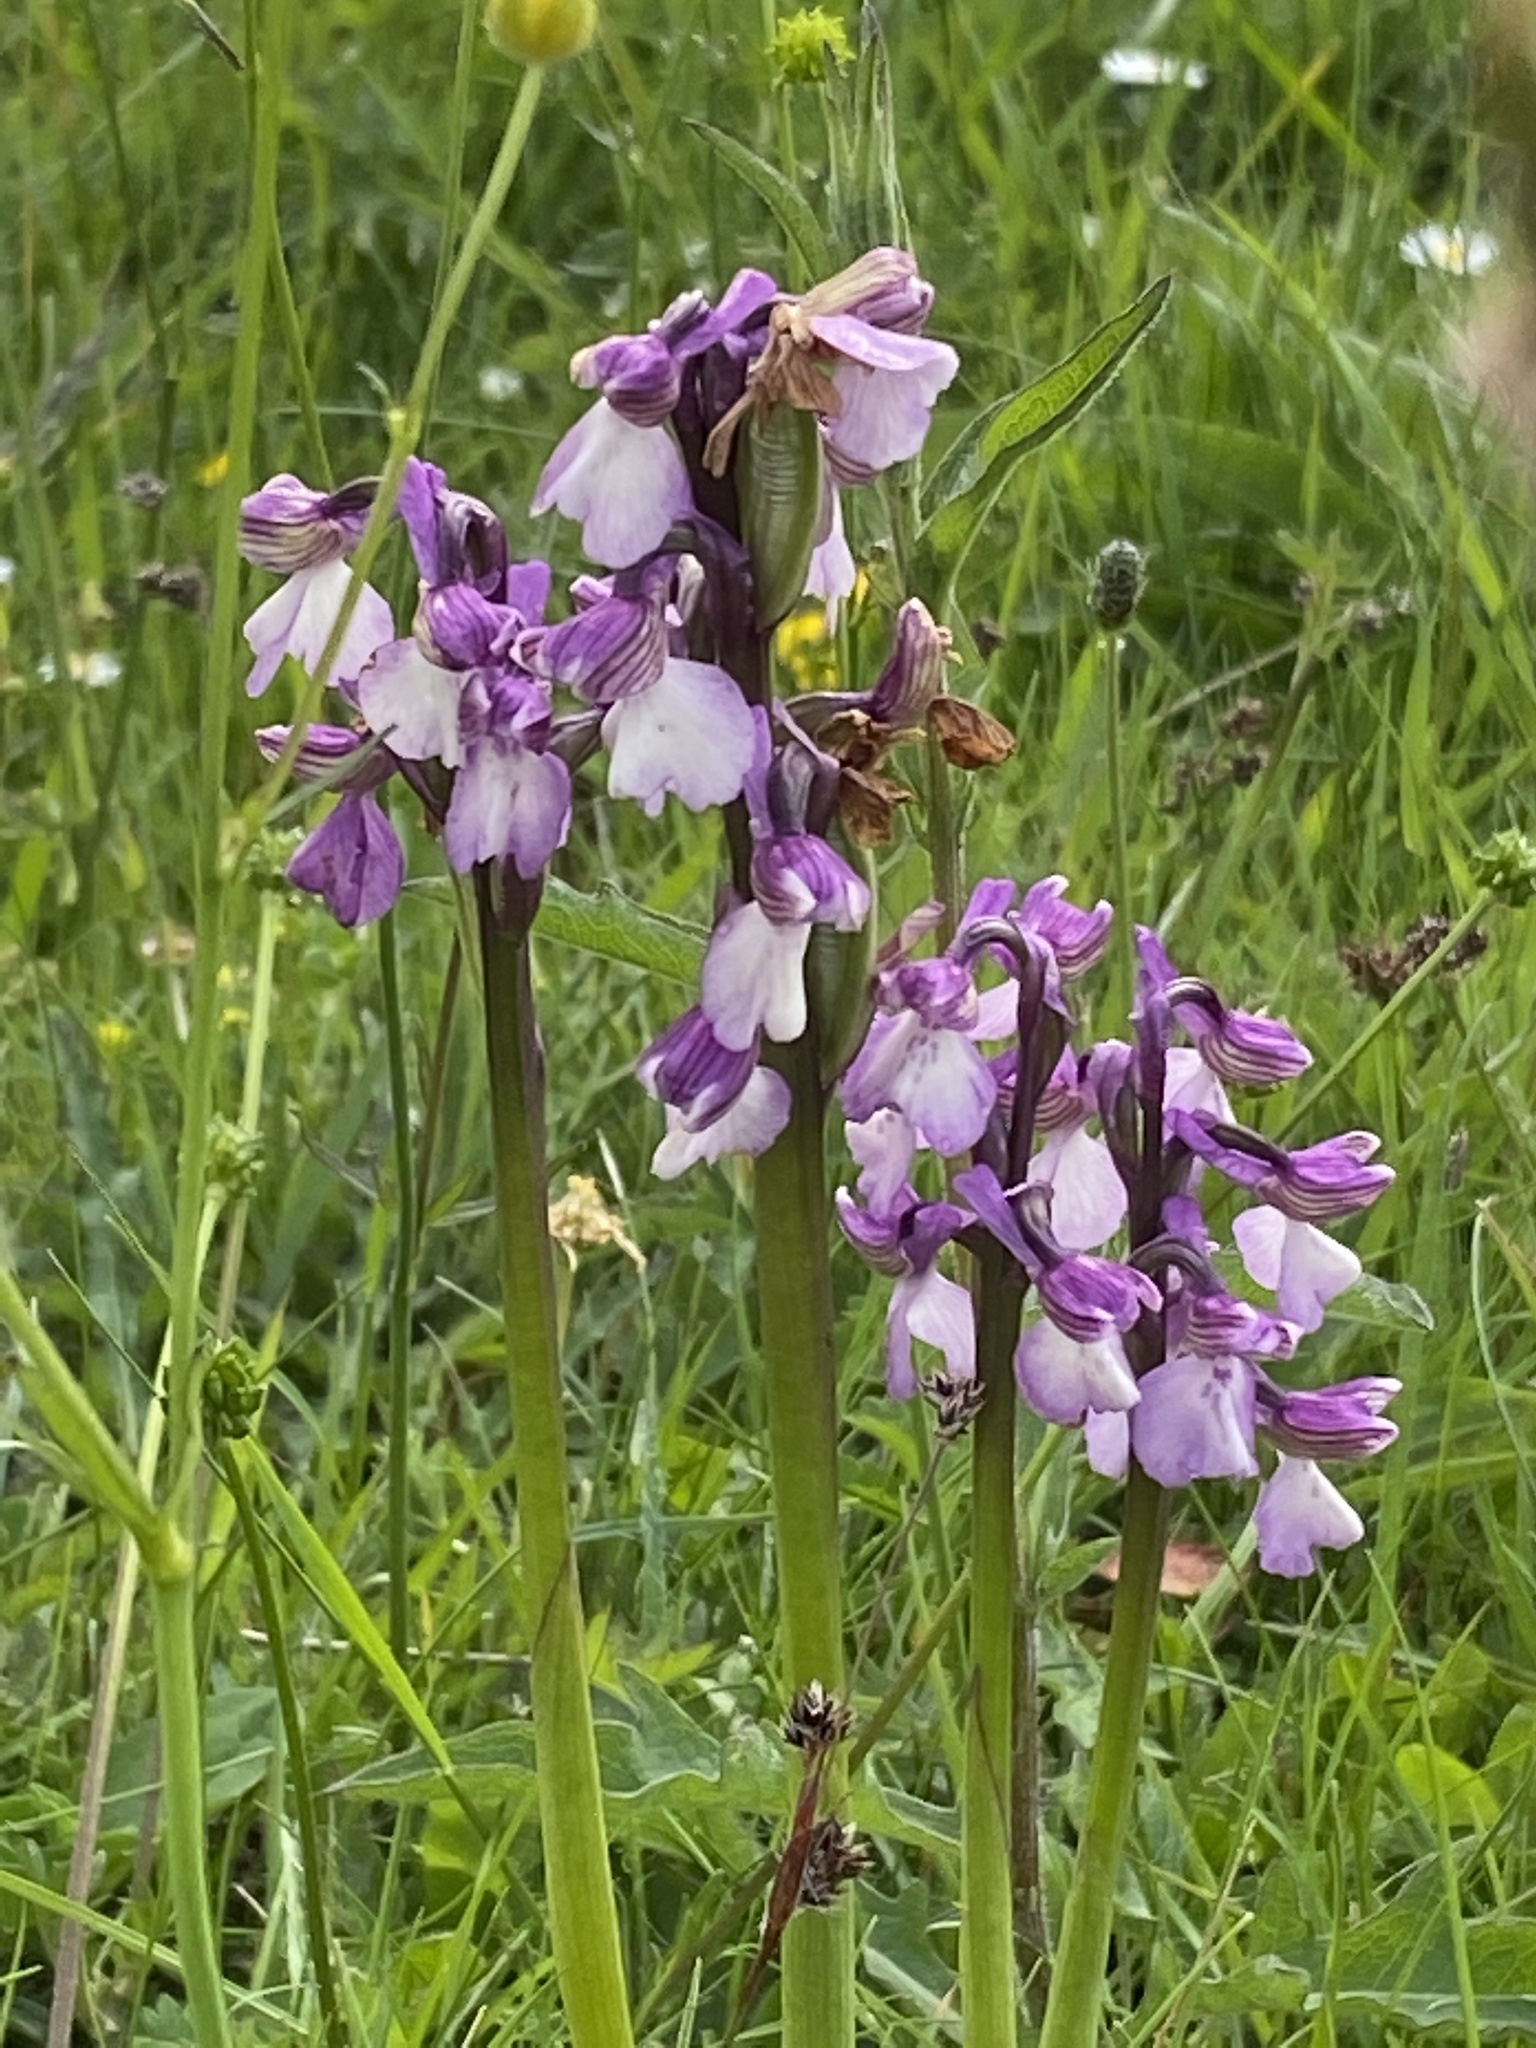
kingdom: Plantae
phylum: Tracheophyta
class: Liliopsida
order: Asparagales
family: Orchidaceae
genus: Anacamptis
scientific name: Anacamptis morio
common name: Green-winged orchid
